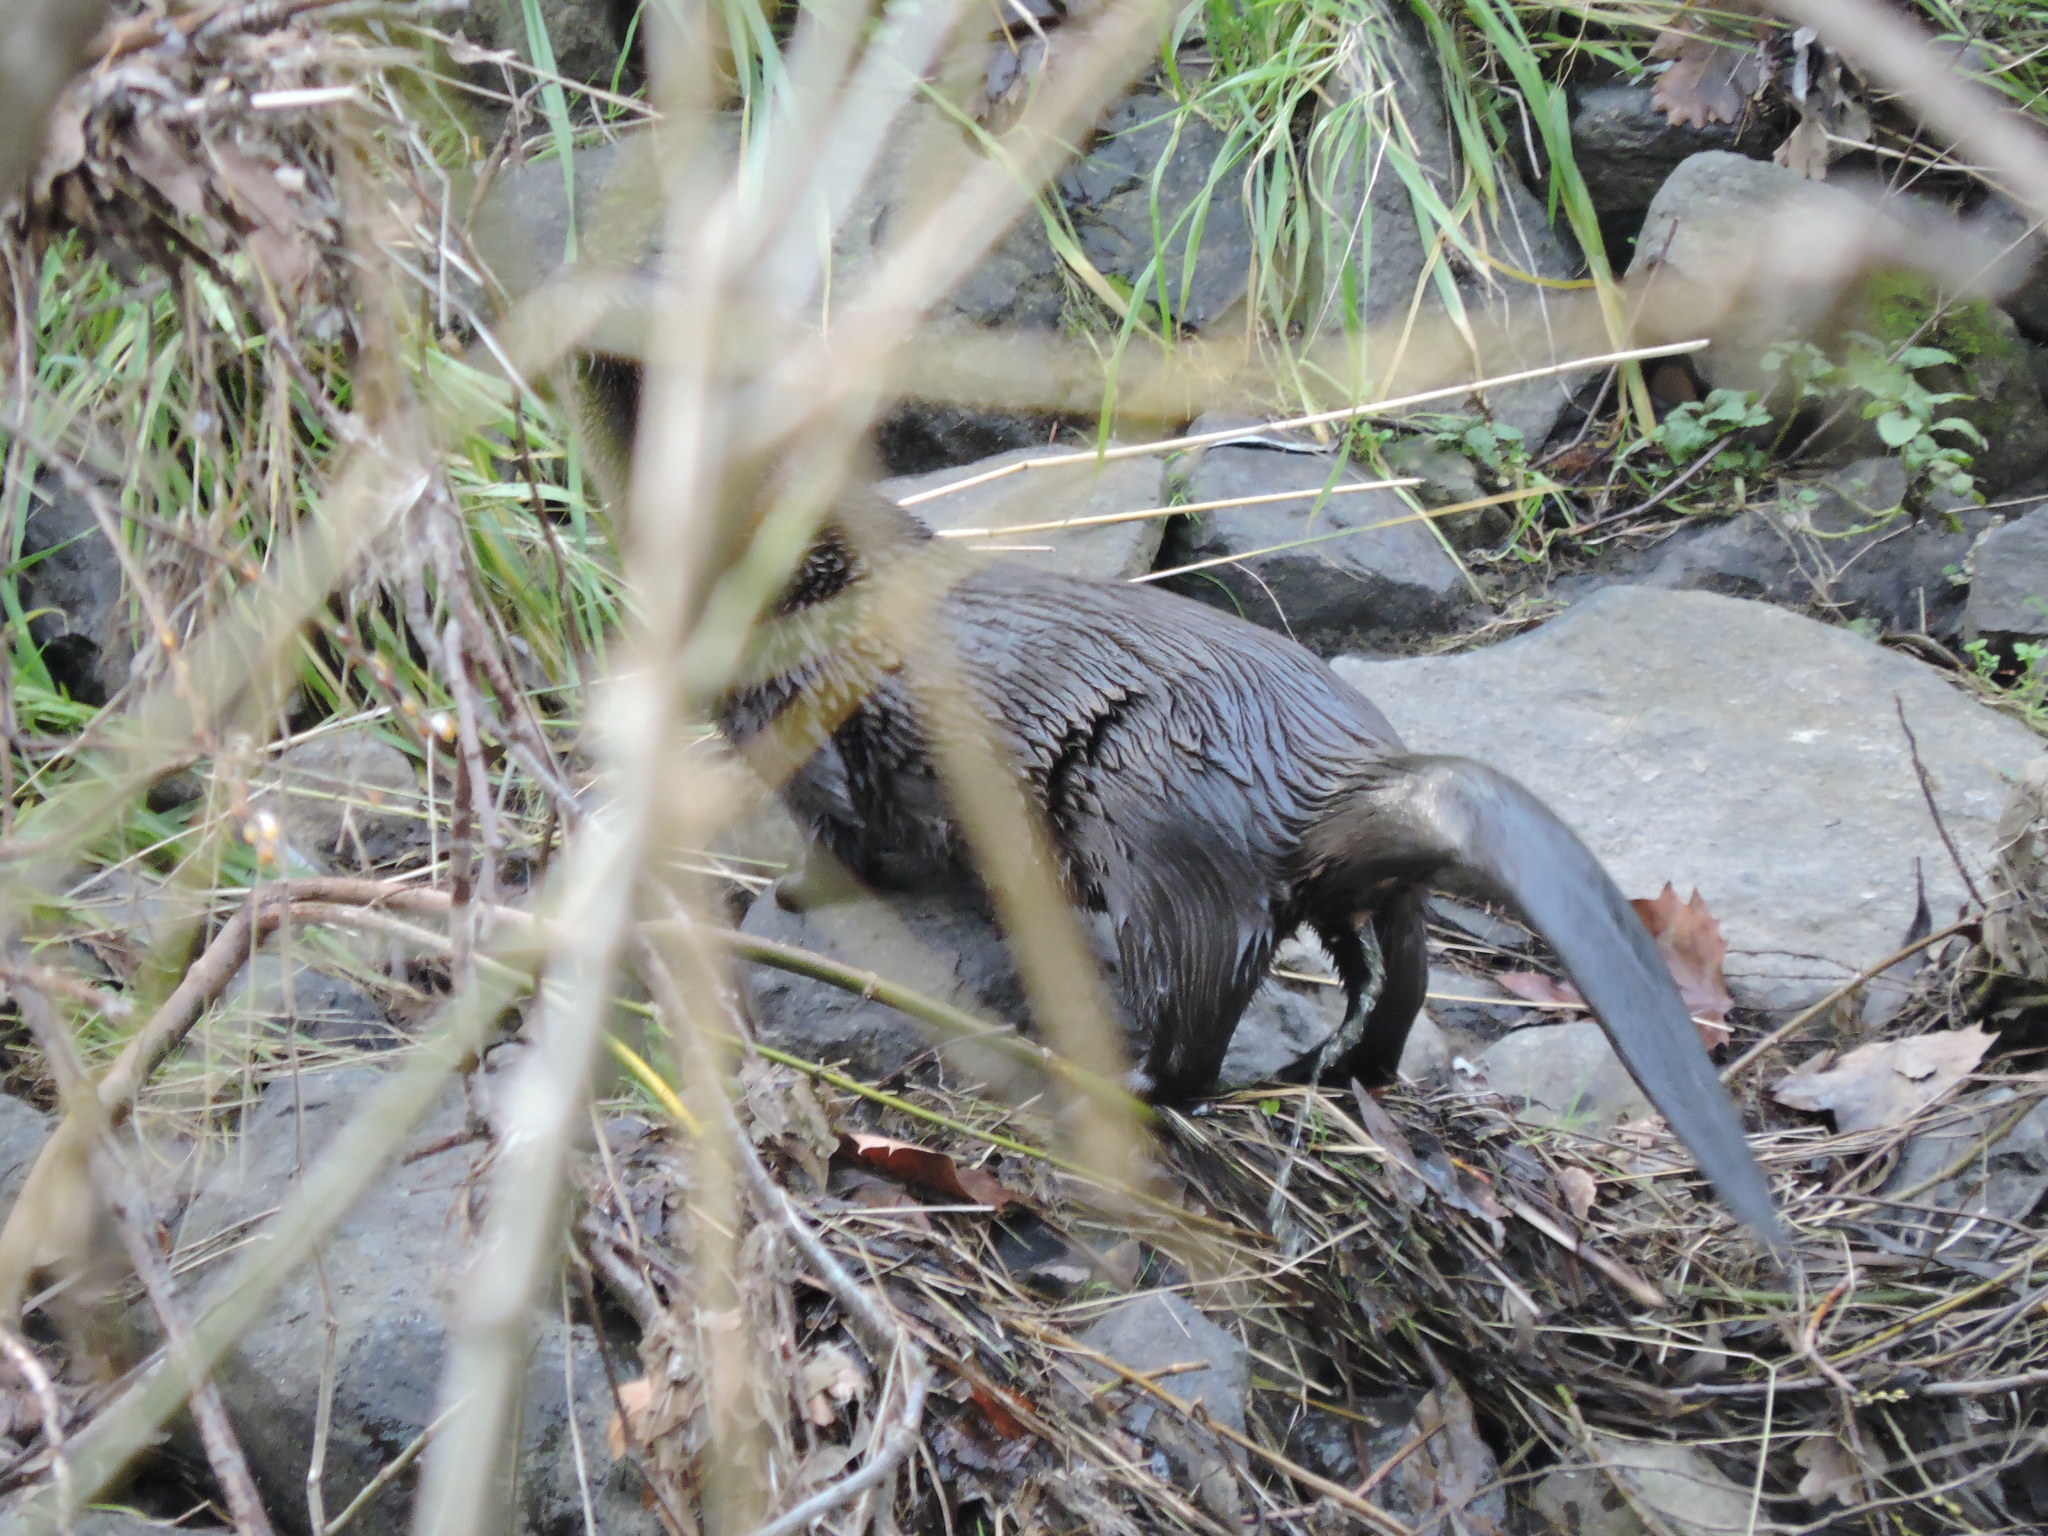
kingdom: Animalia
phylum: Chordata
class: Mammalia
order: Carnivora
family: Mustelidae
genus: Lontra
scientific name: Lontra canadensis
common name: North american river otter
